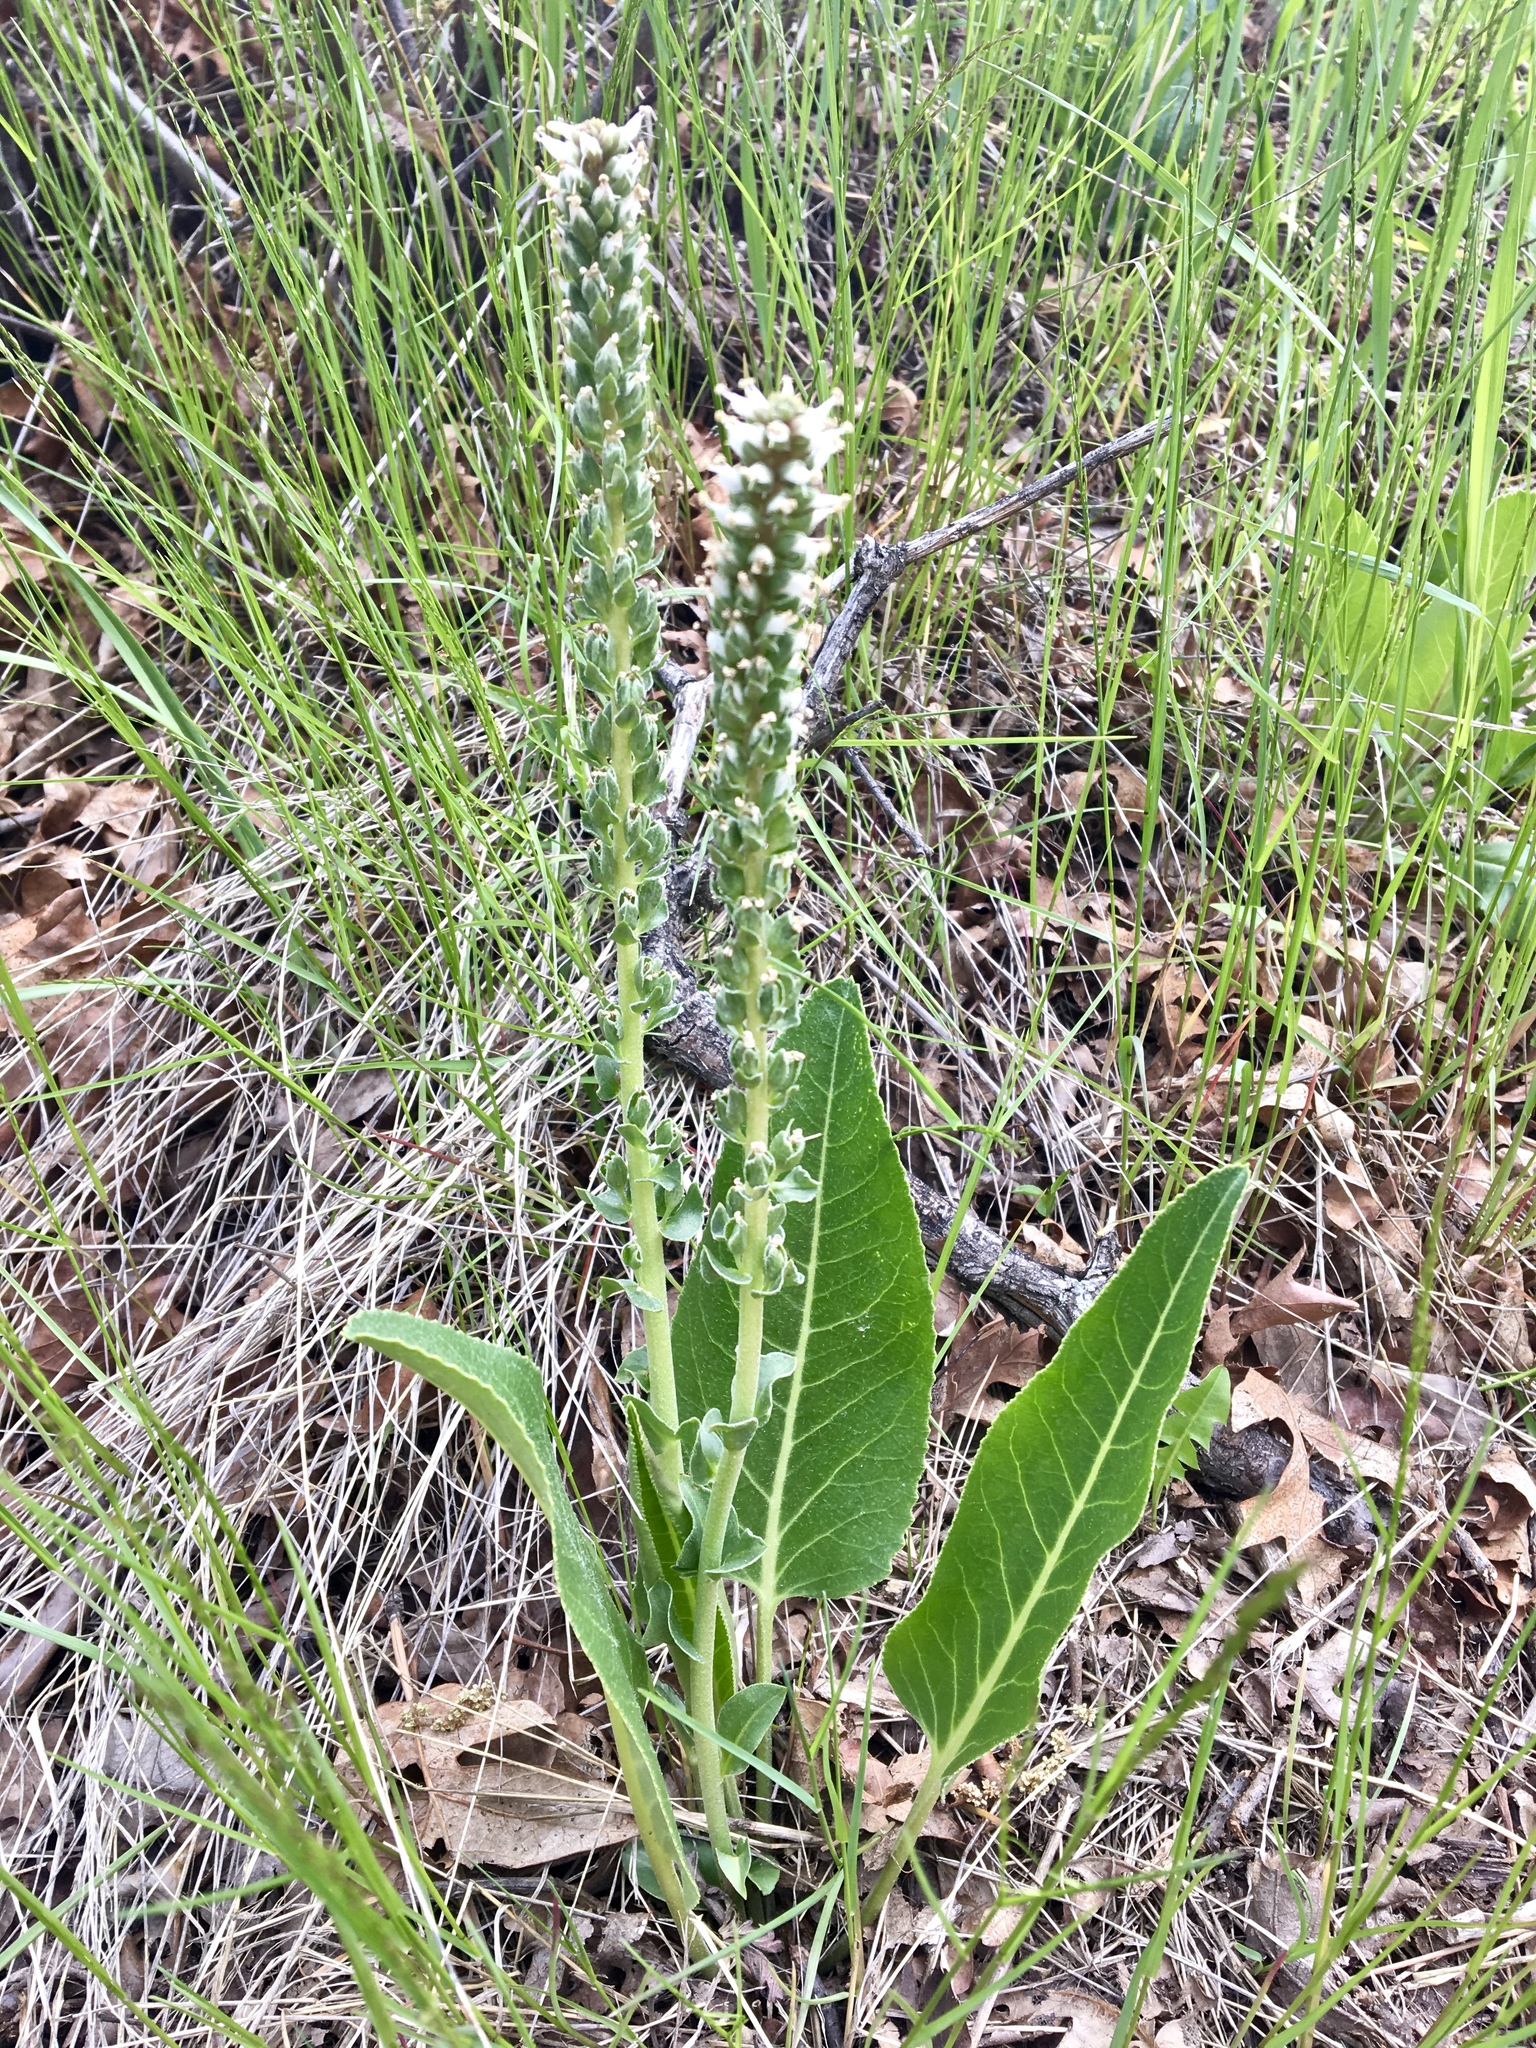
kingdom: Plantae
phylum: Tracheophyta
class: Magnoliopsida
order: Lamiales
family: Plantaginaceae
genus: Veronica
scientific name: Veronica plantaginea
